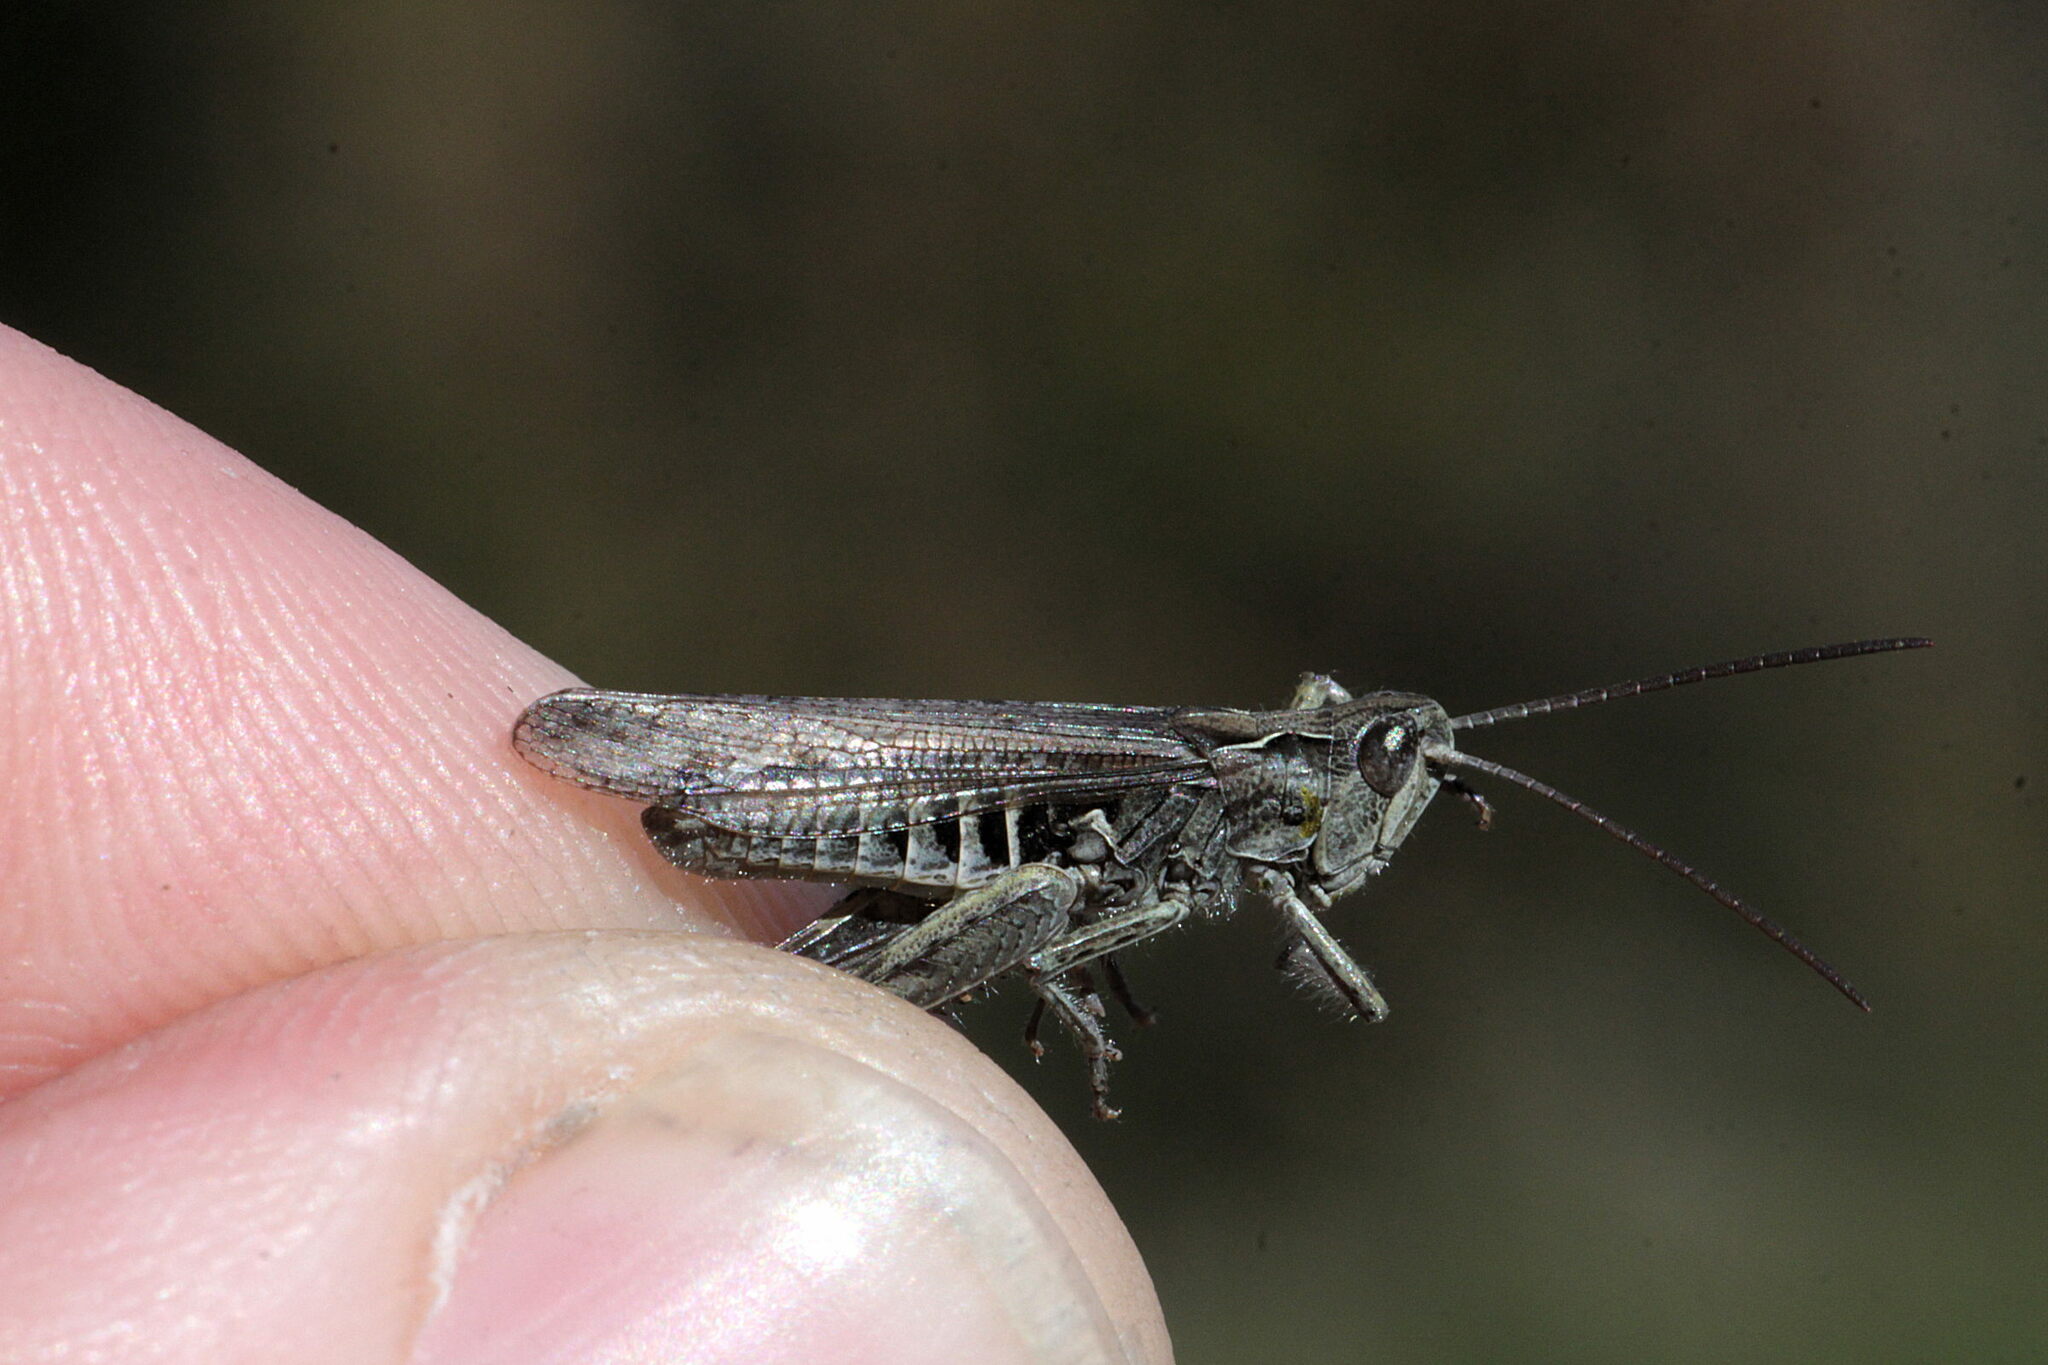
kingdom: Animalia
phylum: Arthropoda
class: Insecta
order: Orthoptera
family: Acrididae
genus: Chorthippus
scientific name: Chorthippus mollis
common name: Lesser field grasshopper
